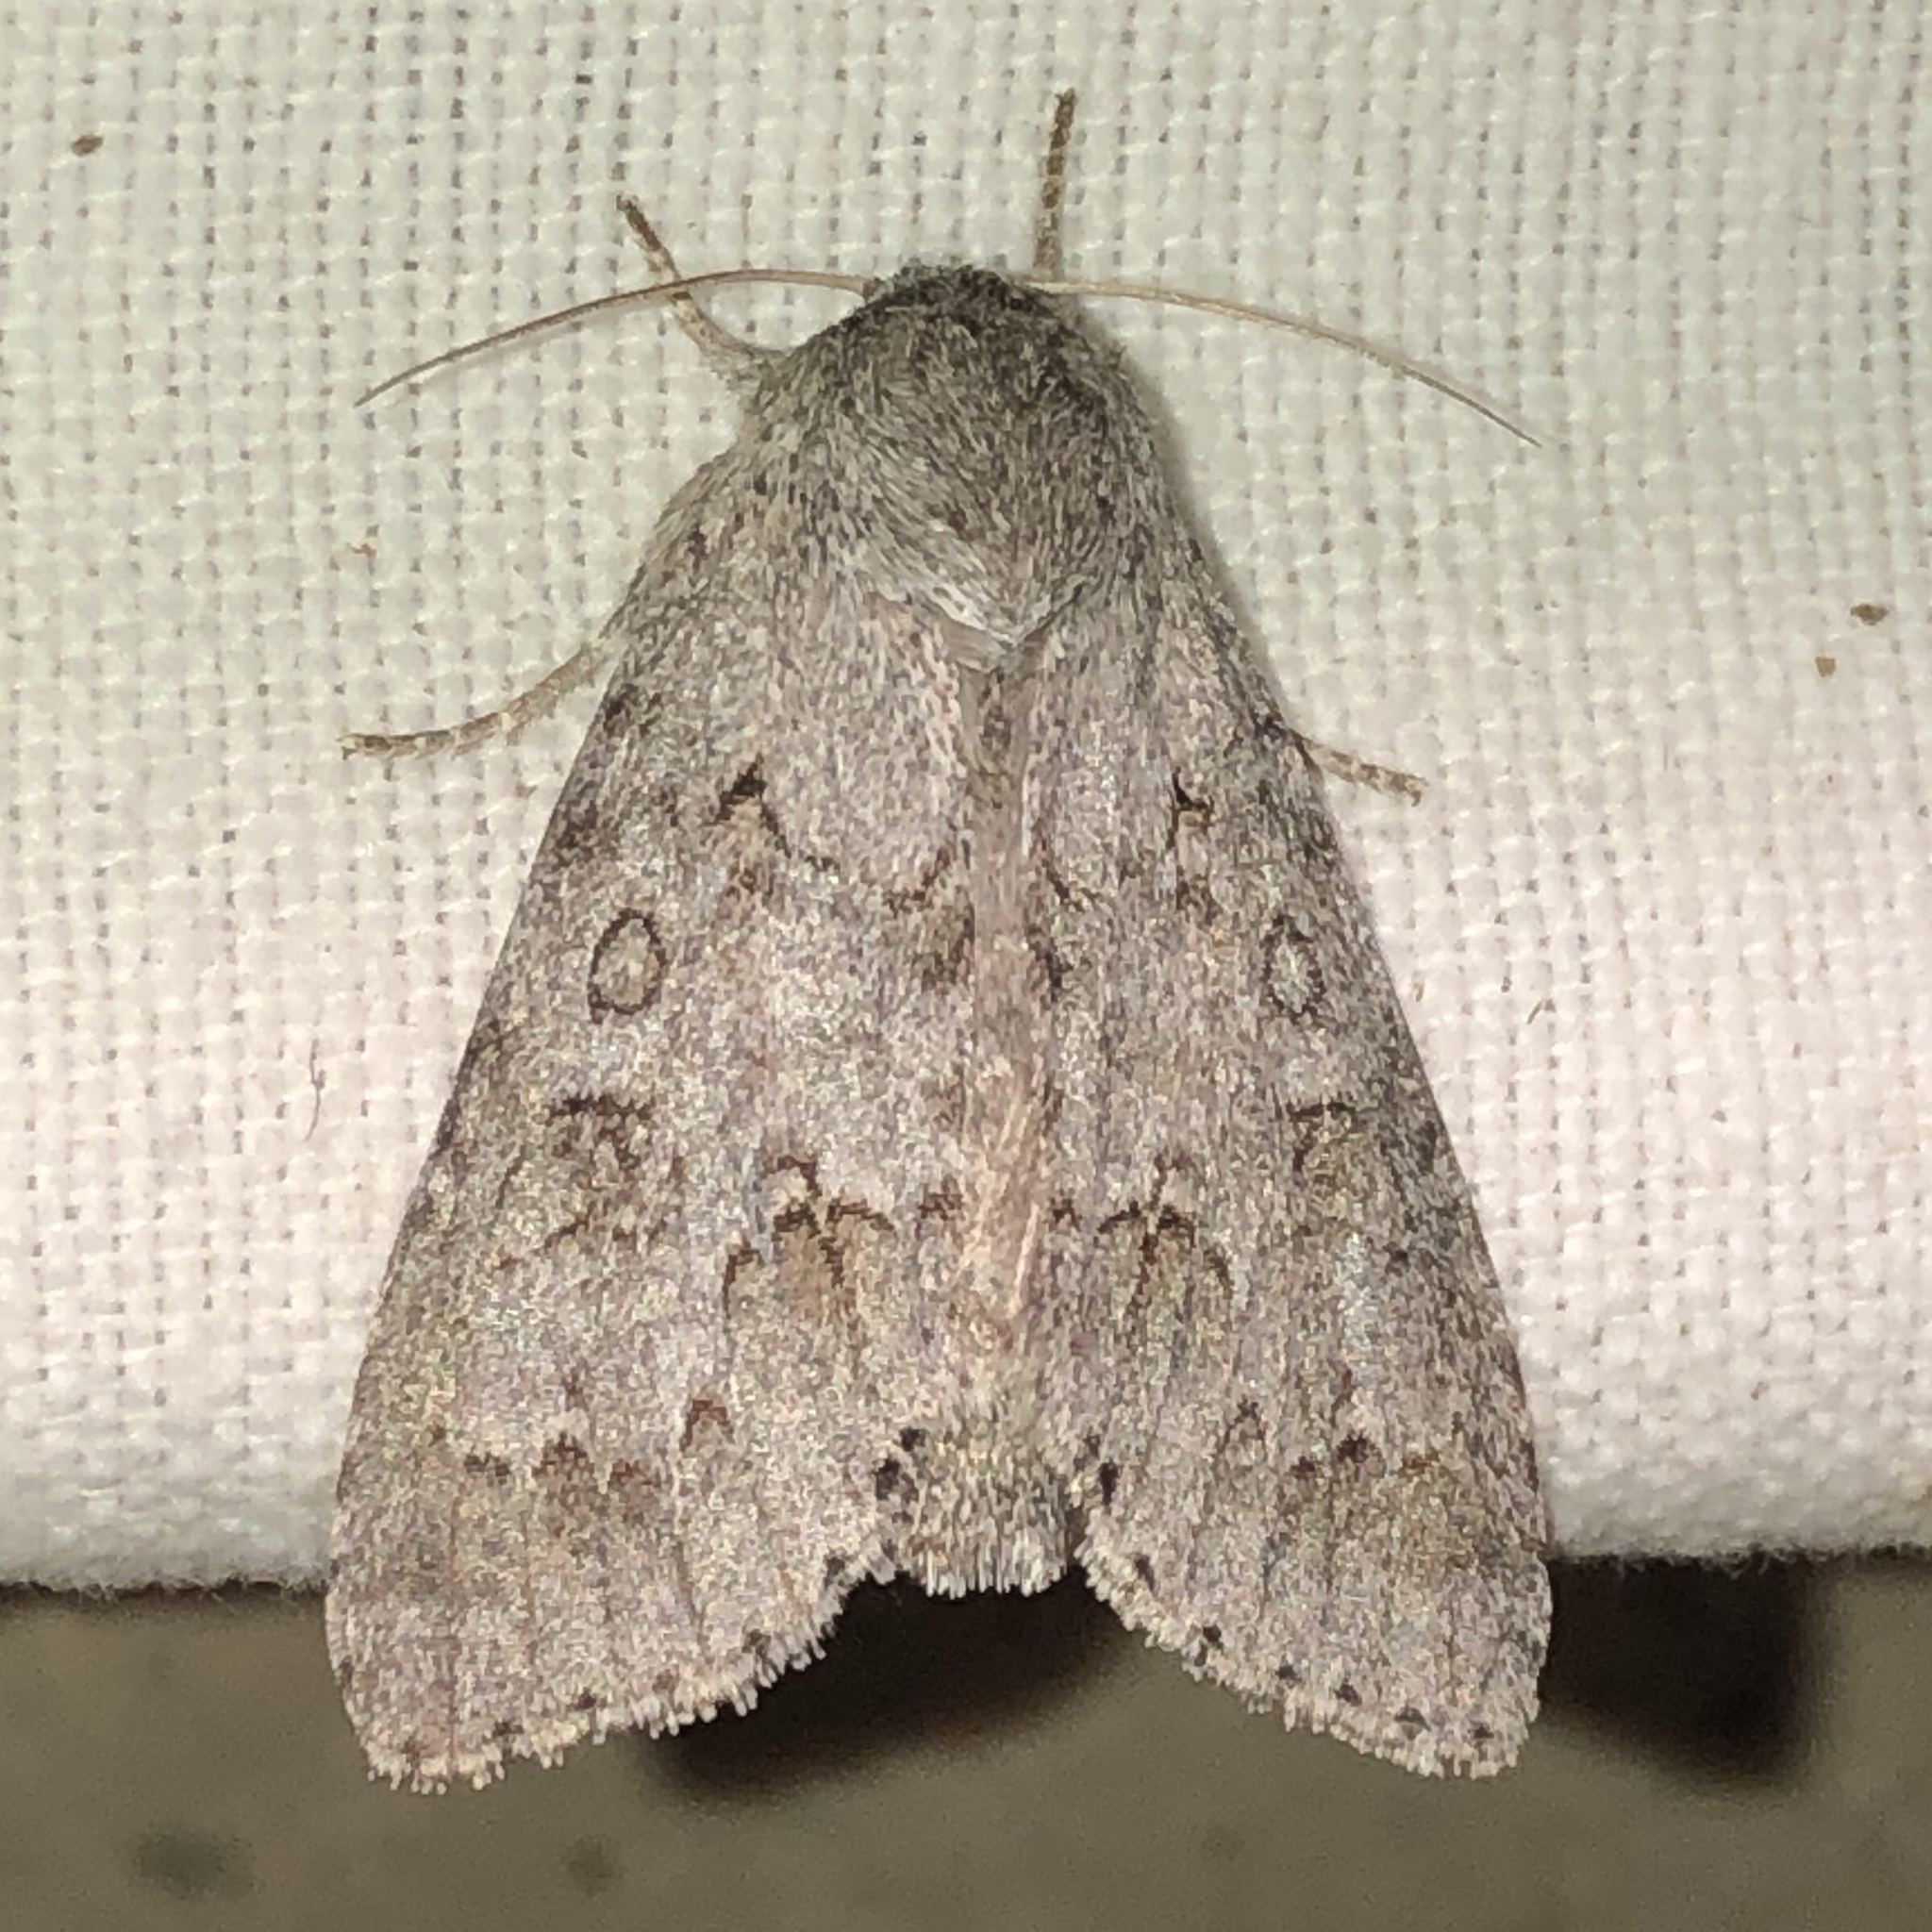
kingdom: Animalia
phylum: Arthropoda
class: Insecta
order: Lepidoptera
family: Noctuidae
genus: Acronicta
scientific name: Acronicta insita
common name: Large gray dagger
